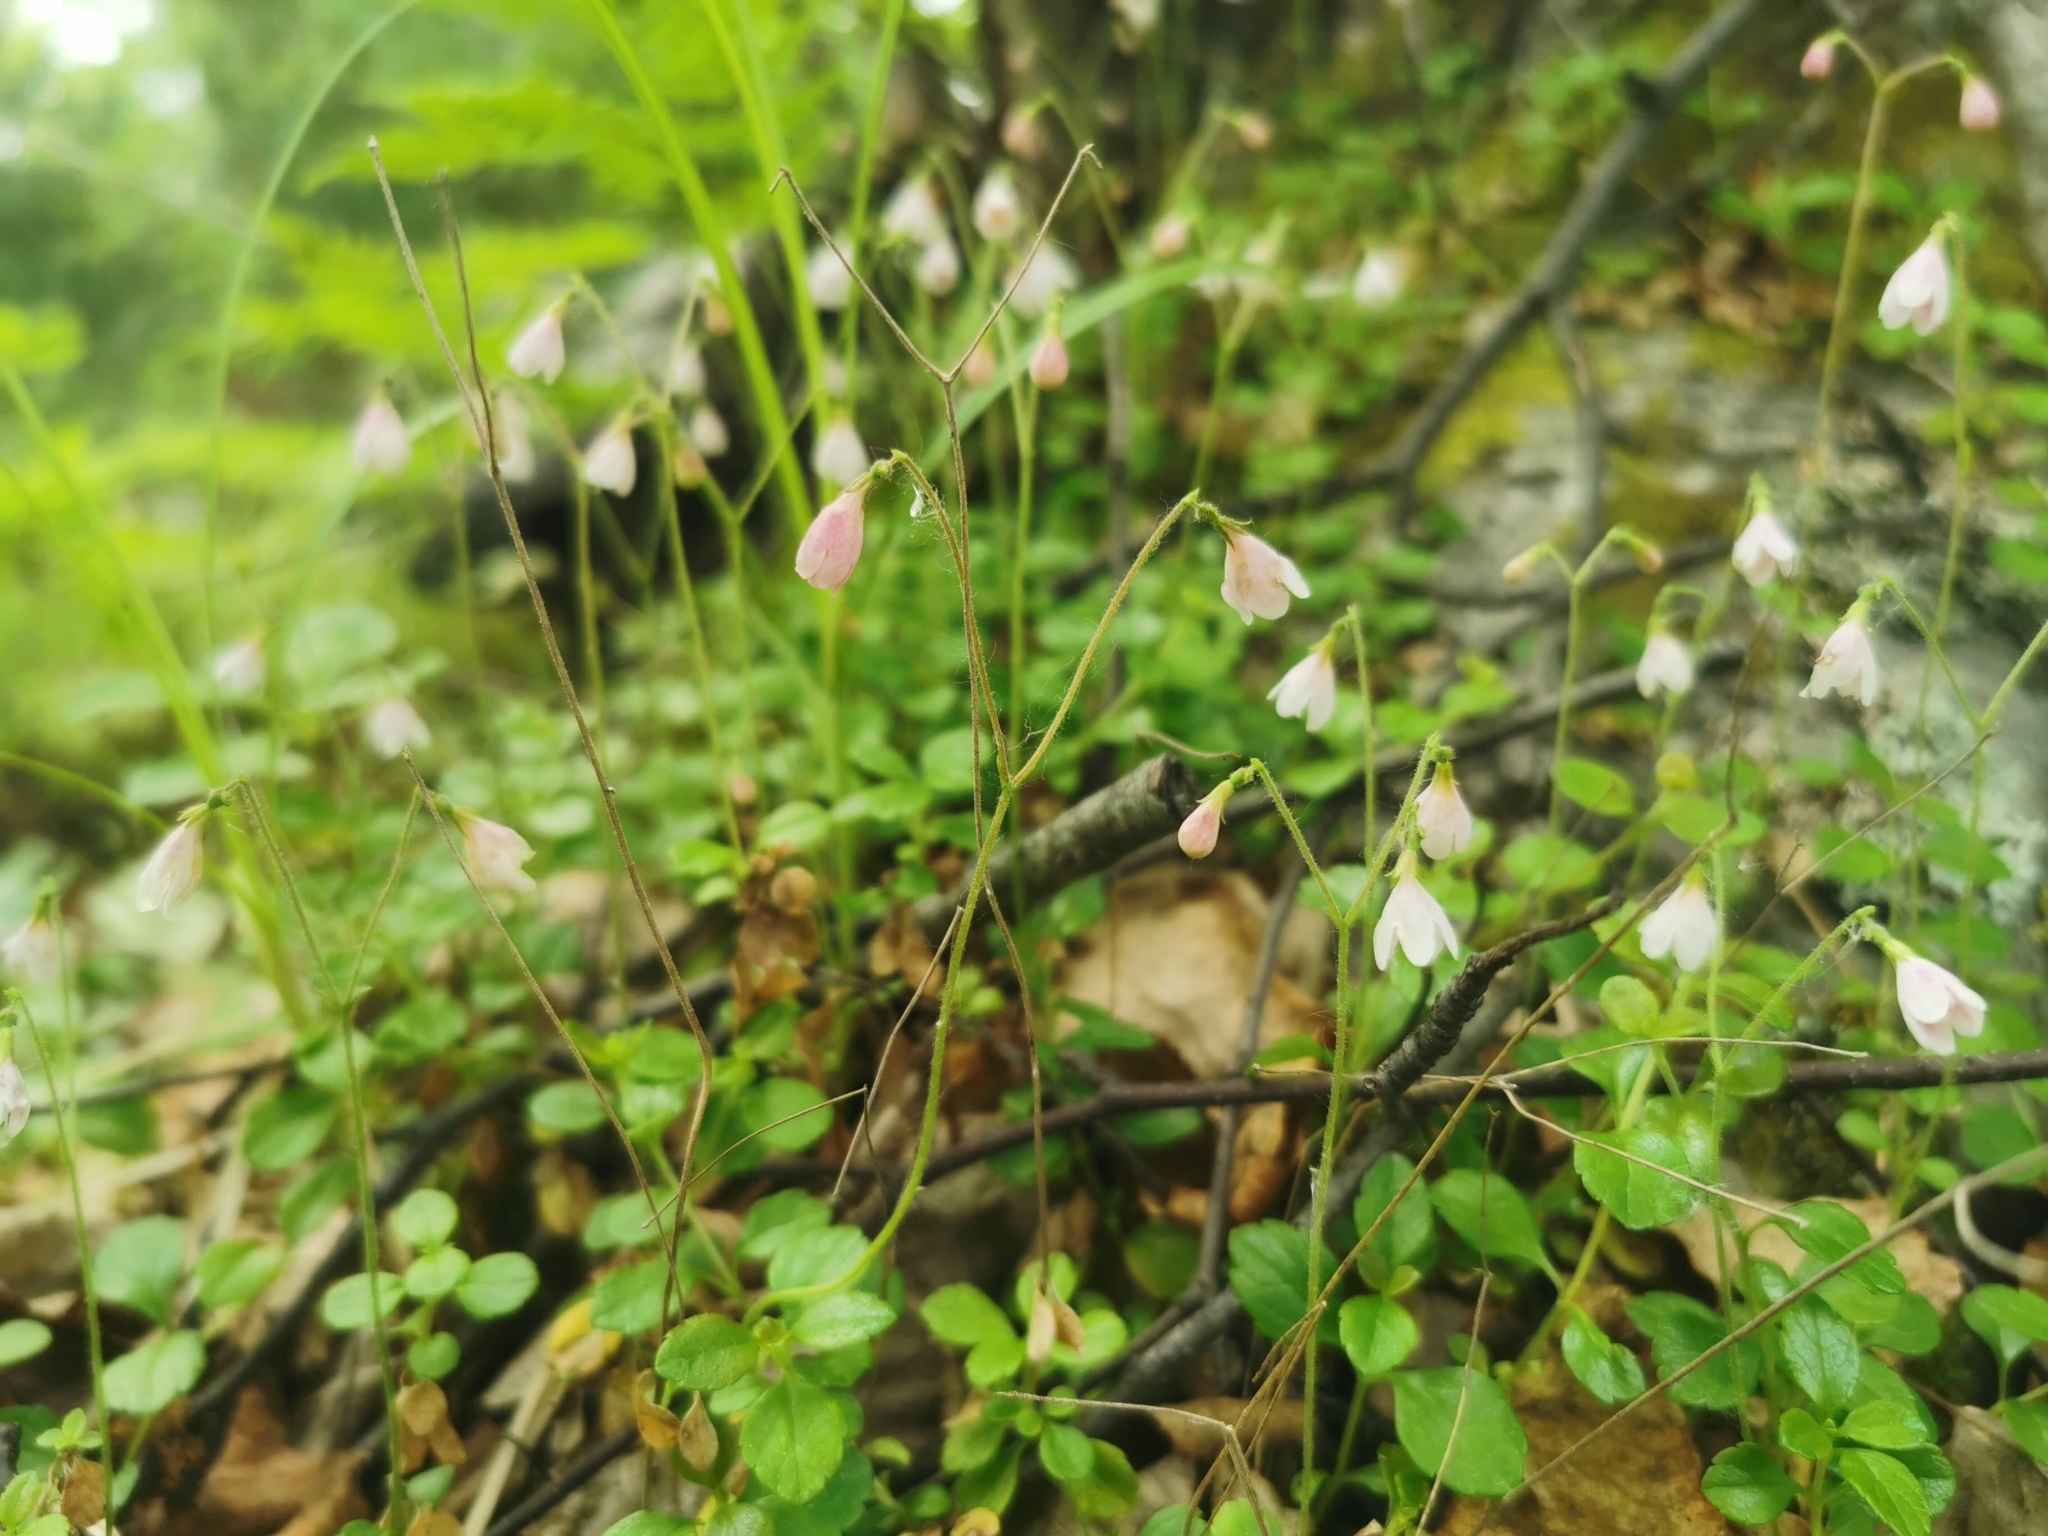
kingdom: Plantae
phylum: Tracheophyta
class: Magnoliopsida
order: Dipsacales
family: Caprifoliaceae
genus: Linnaea
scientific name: Linnaea borealis
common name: Twinflower
